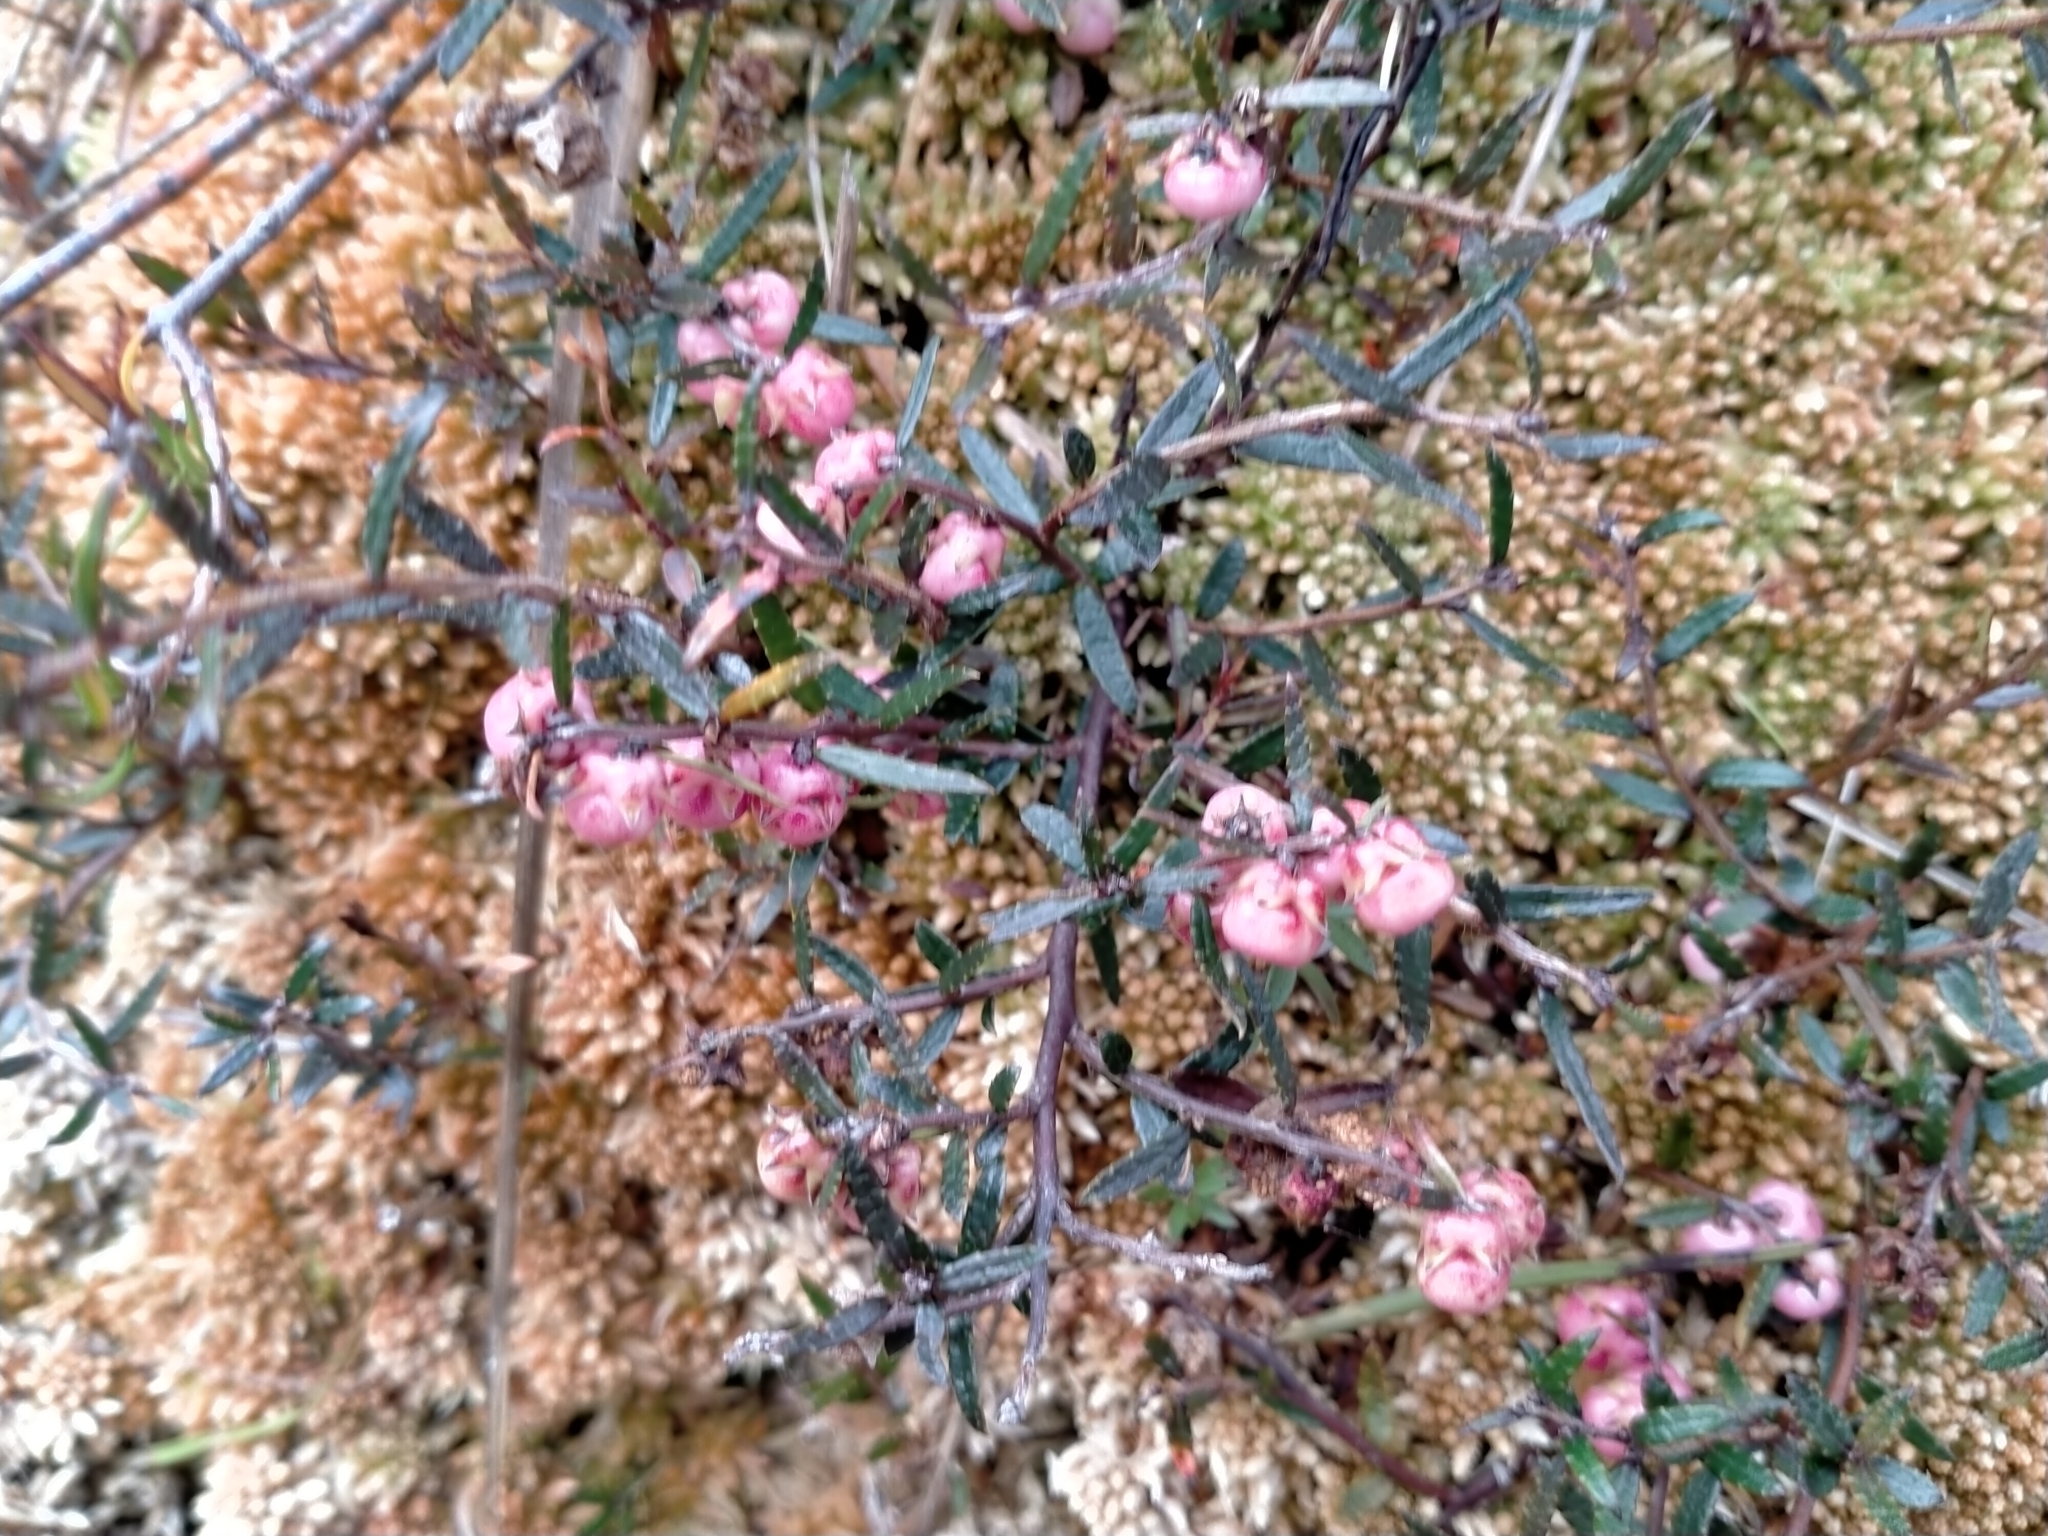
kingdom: Plantae
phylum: Tracheophyta
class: Magnoliopsida
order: Ericales
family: Ericaceae
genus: Gaultheria
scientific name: Gaultheria macrostigma
